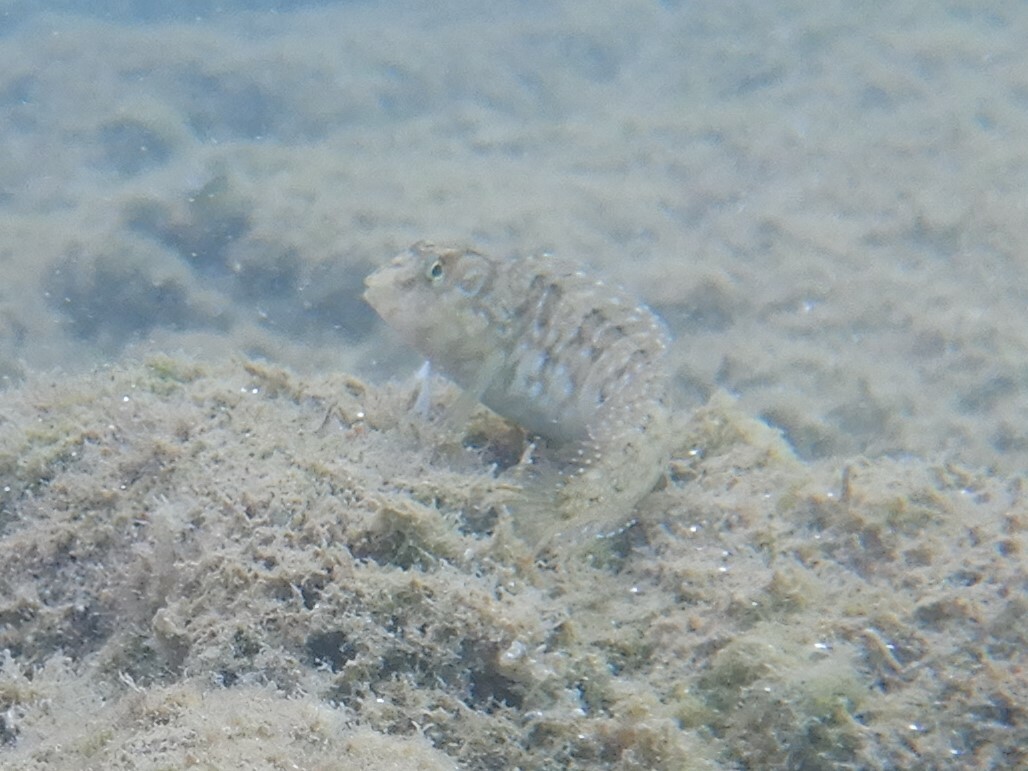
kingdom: Animalia
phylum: Chordata
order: Perciformes
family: Blenniidae
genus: Salaria
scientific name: Salaria pavo
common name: Peacock blenny
